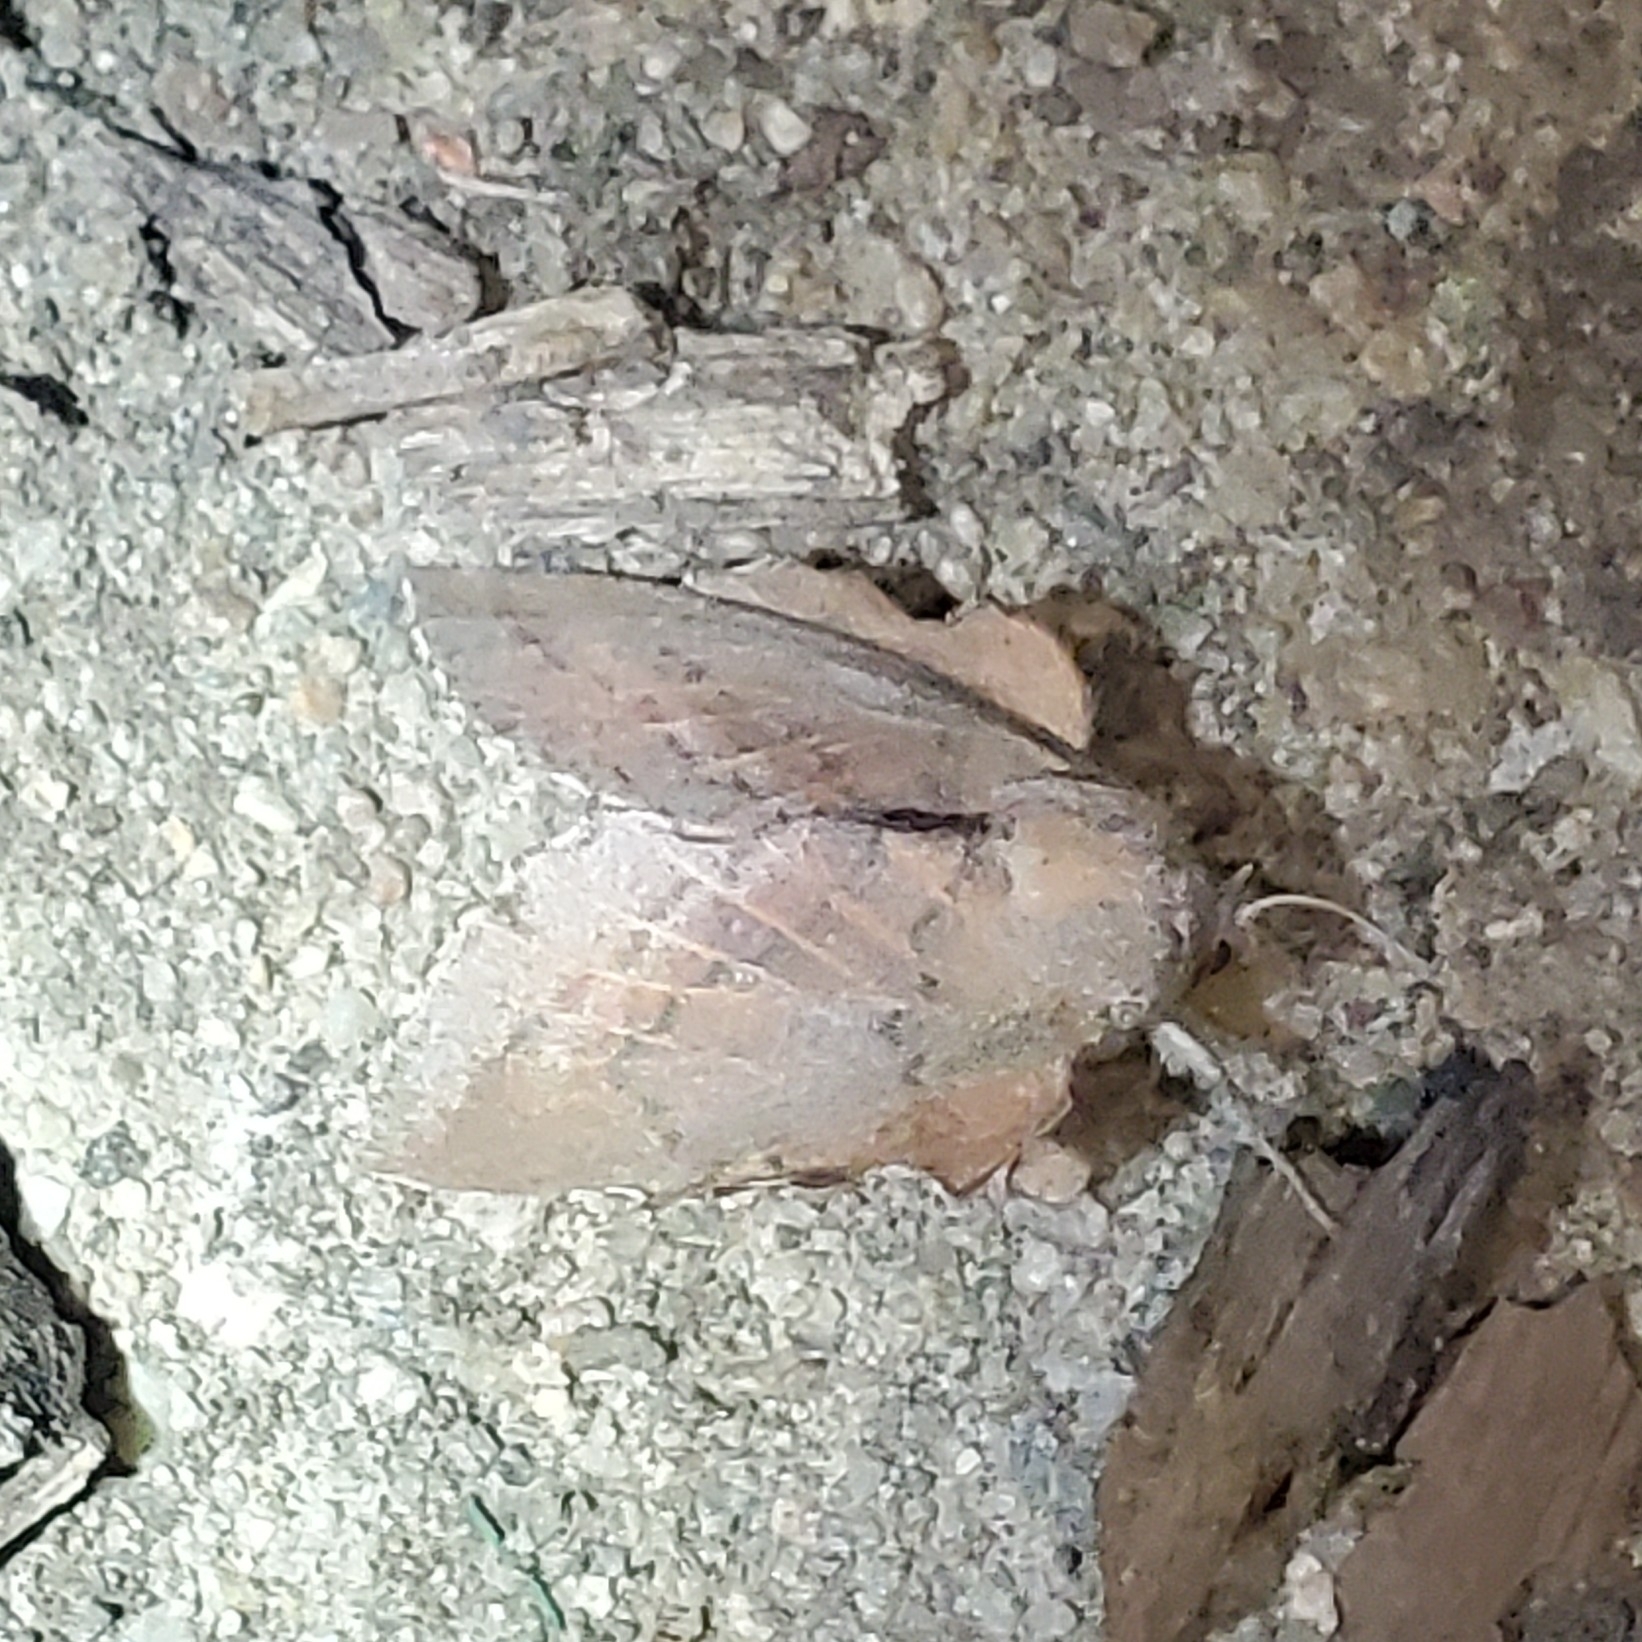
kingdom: Animalia
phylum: Arthropoda
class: Insecta
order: Lepidoptera
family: Lasiocampidae
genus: Phyllodesma
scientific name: Phyllodesma americana
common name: American lappet moth
